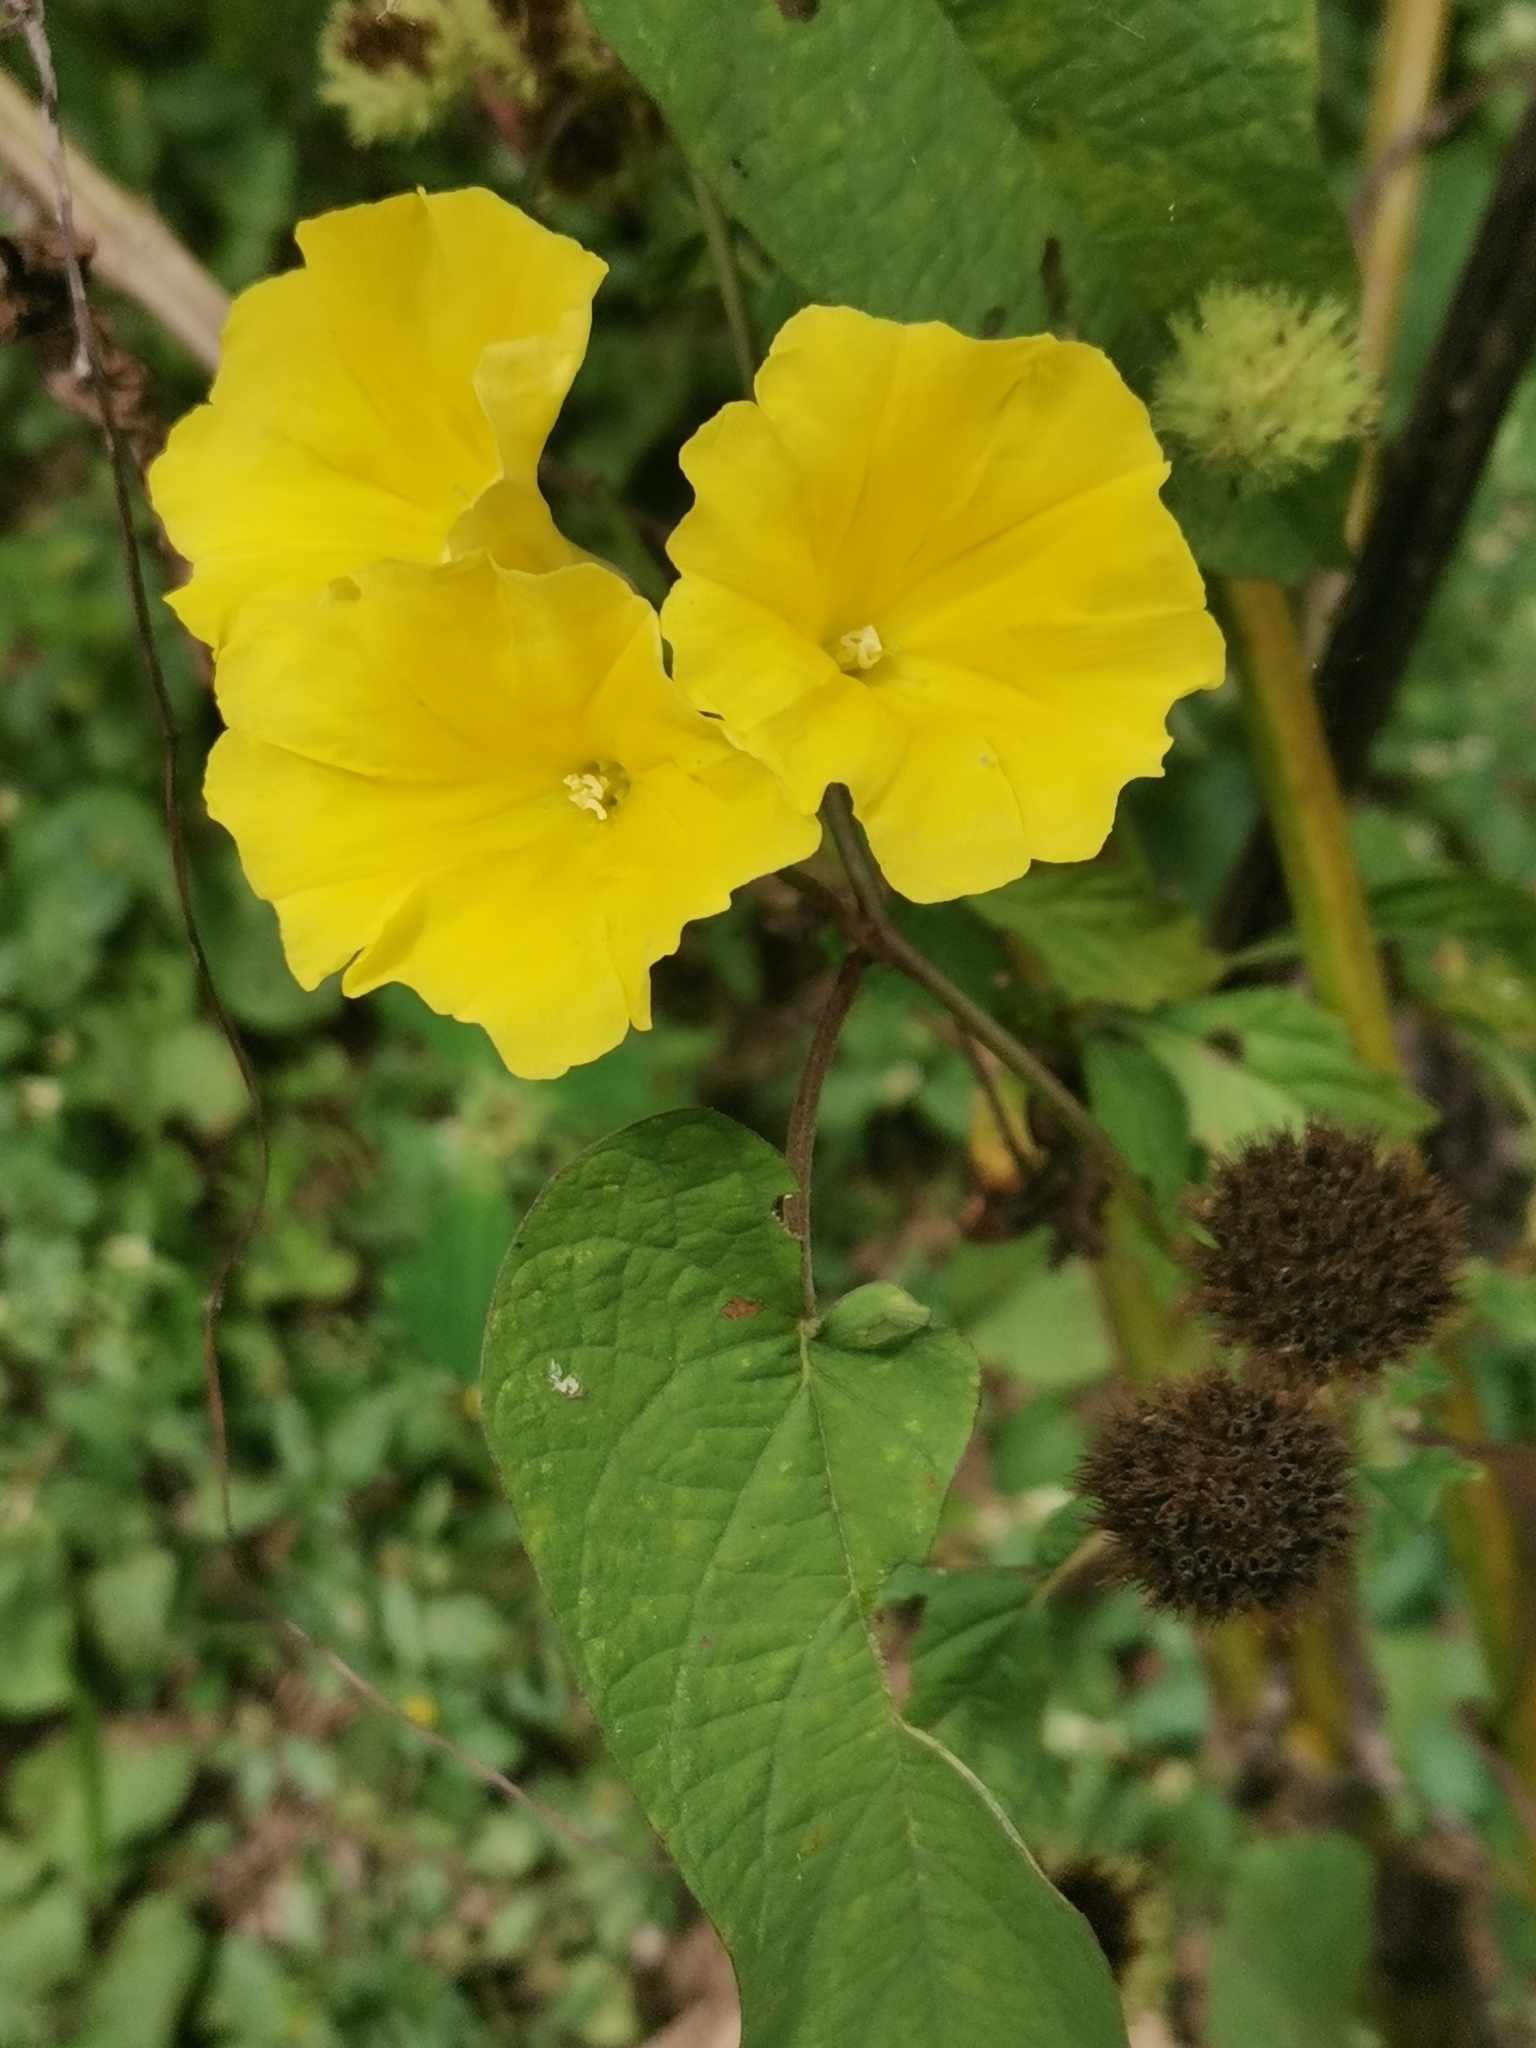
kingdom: Plantae
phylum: Tracheophyta
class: Magnoliopsida
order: Solanales
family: Convolvulaceae
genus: Camonea
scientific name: Camonea umbellata
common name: Hogvine
